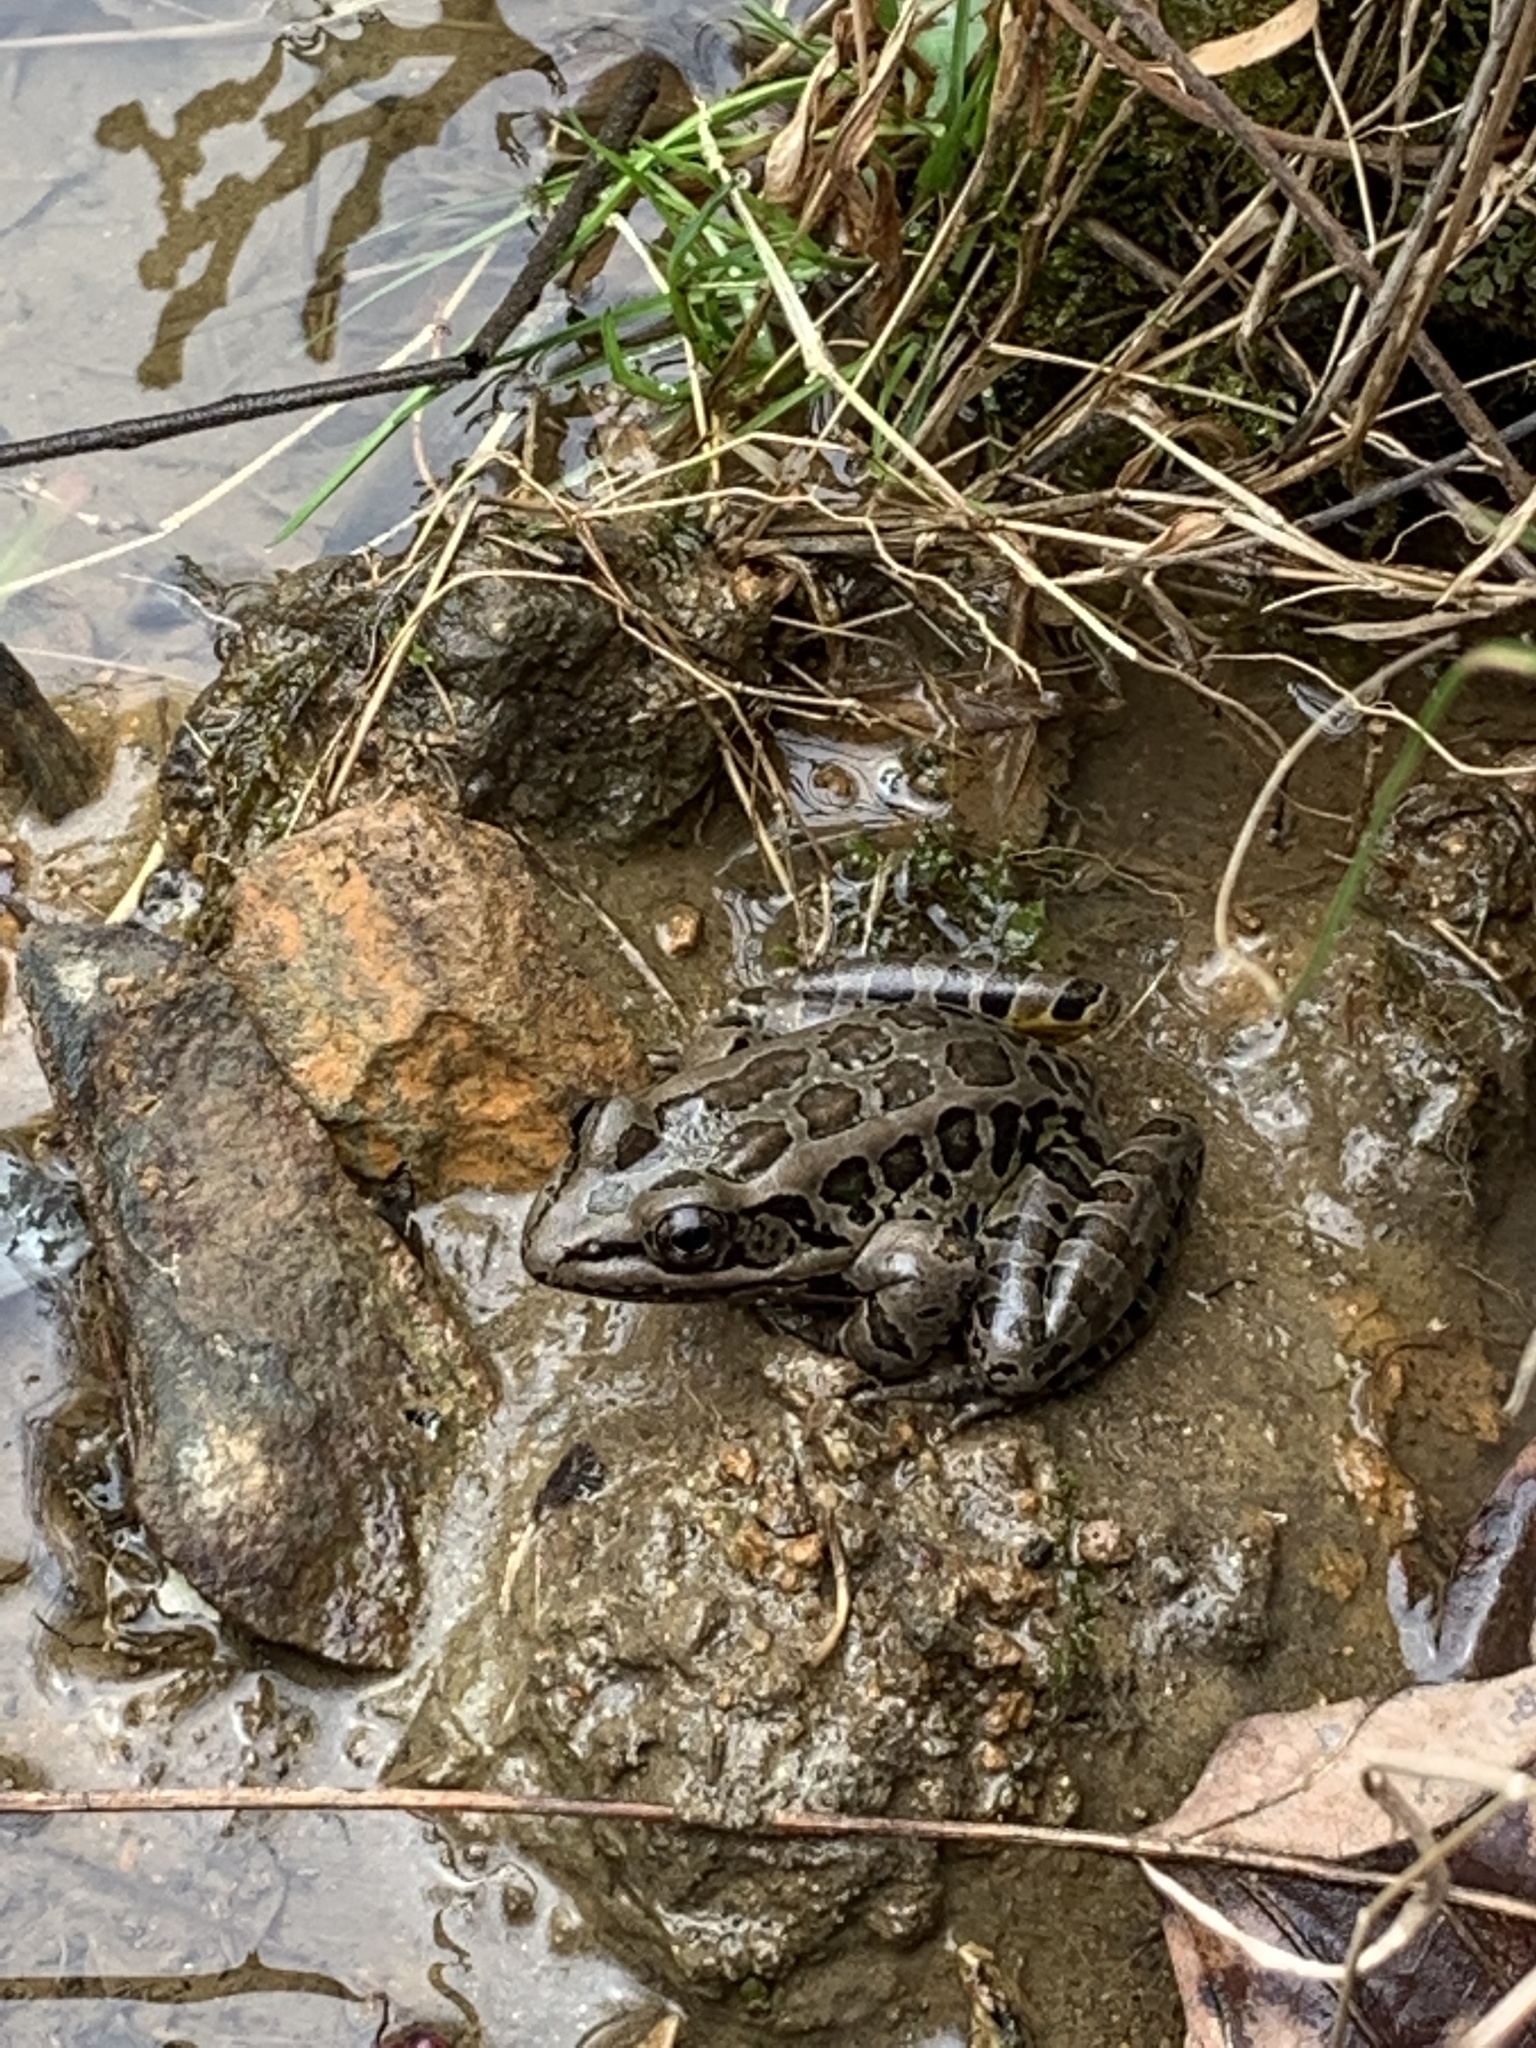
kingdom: Animalia
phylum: Chordata
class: Amphibia
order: Anura
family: Ranidae
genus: Lithobates
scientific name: Lithobates palustris
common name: Pickerel frog
